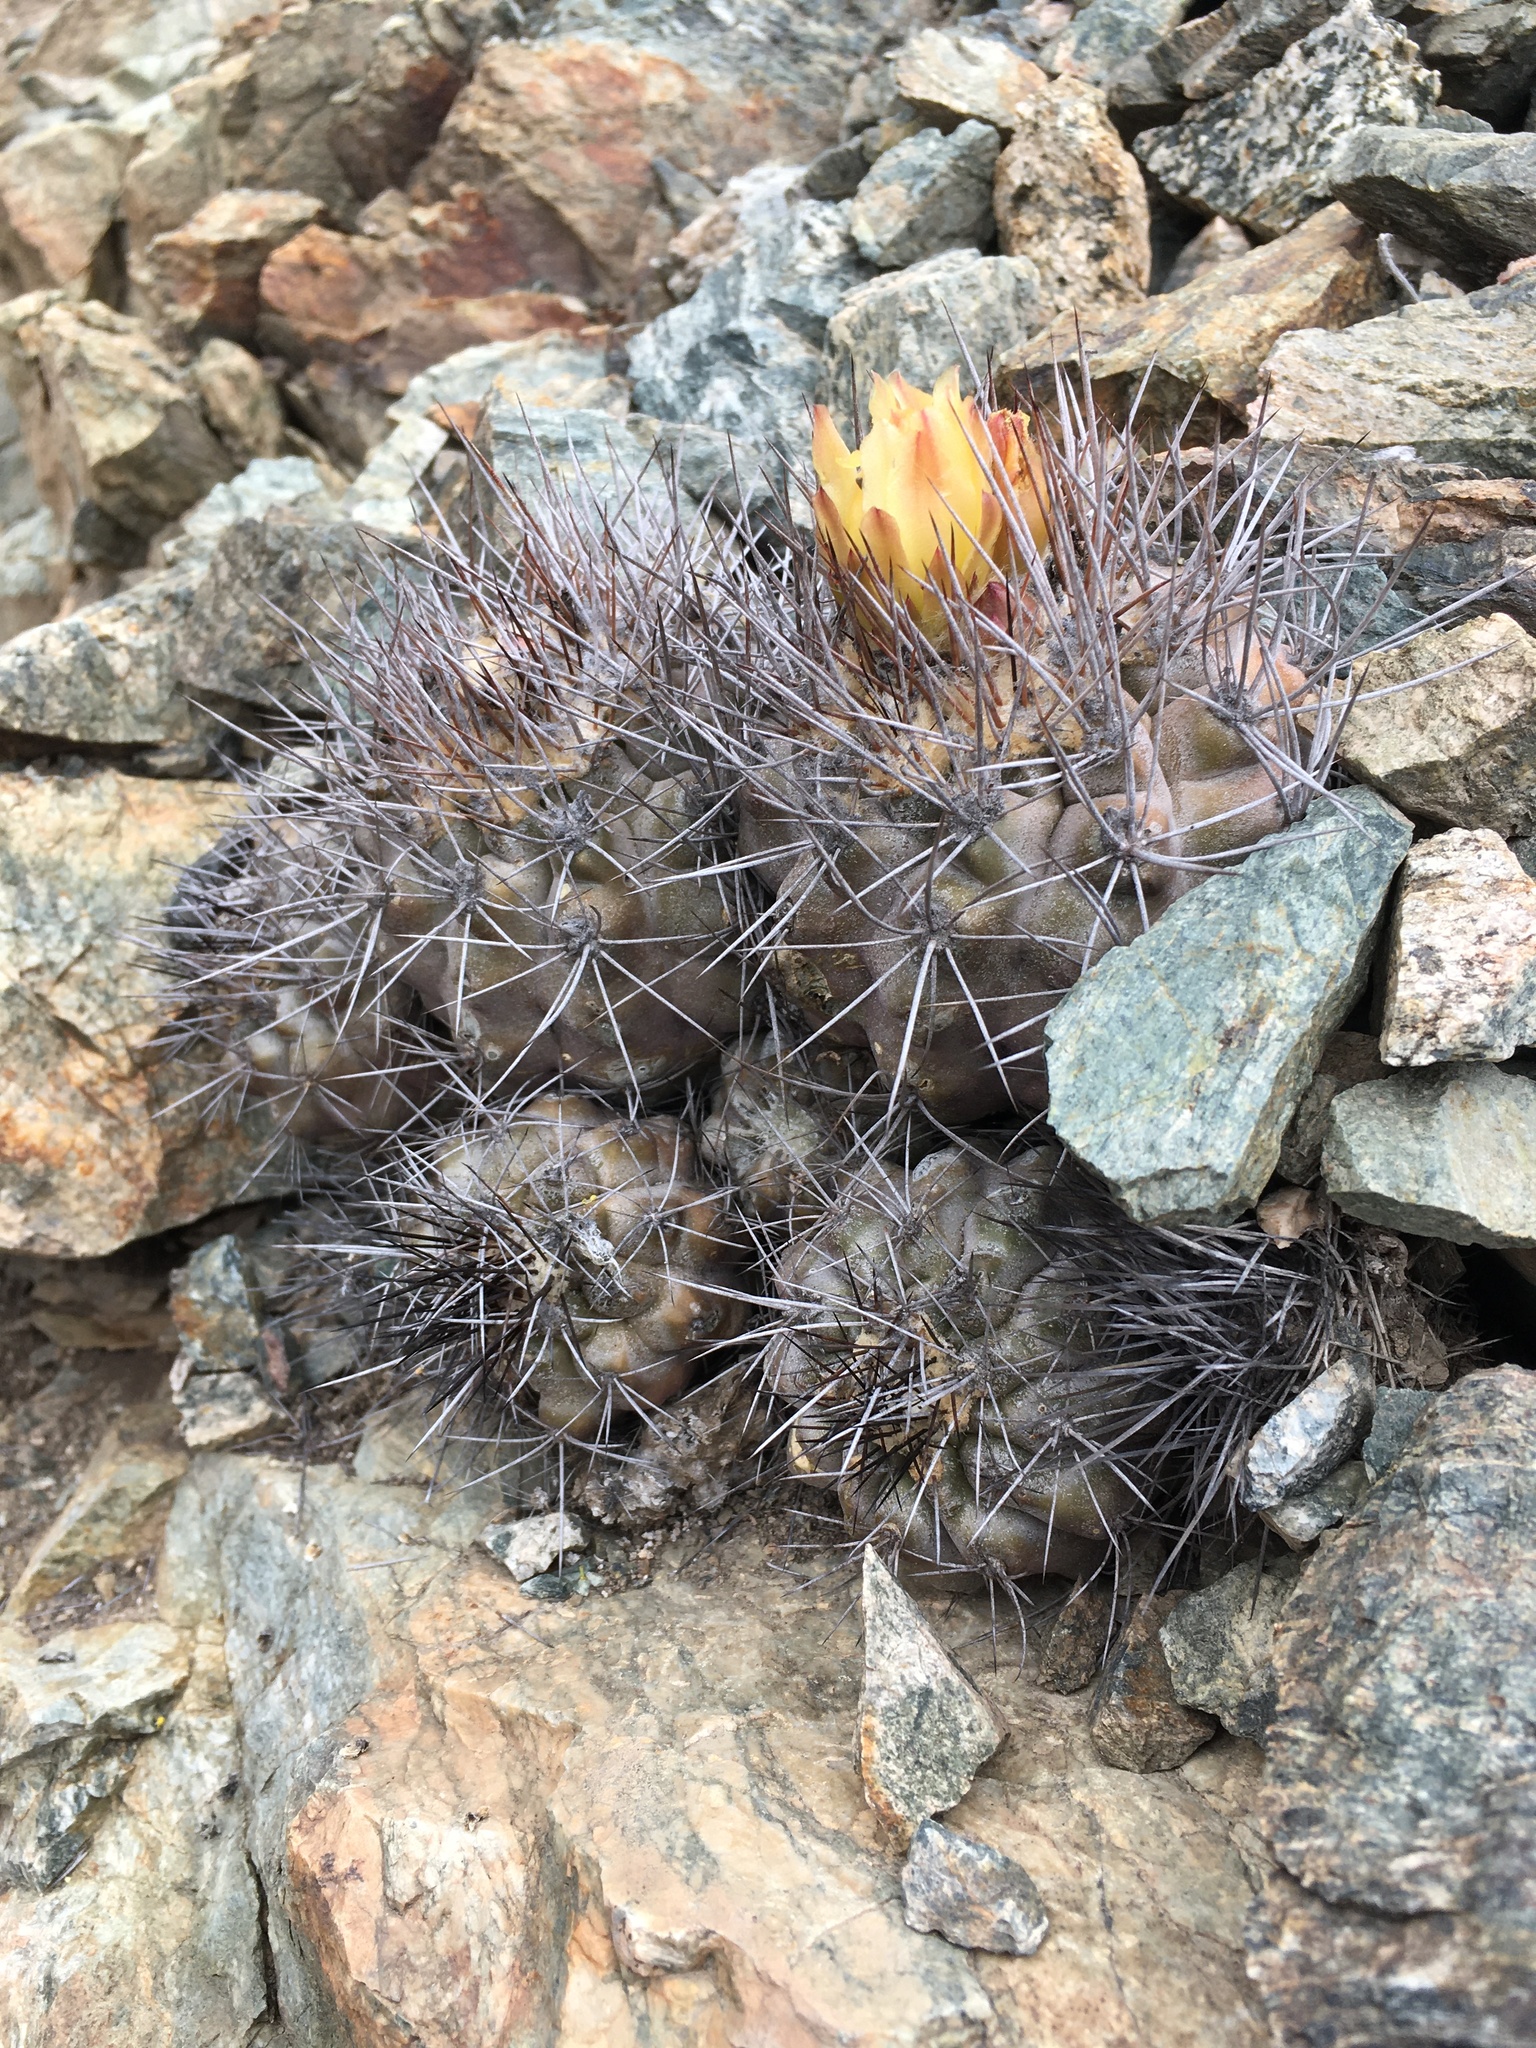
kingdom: Plantae
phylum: Tracheophyta
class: Magnoliopsida
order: Caryophyllales
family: Cactaceae
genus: Copiapoa
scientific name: Copiapoa humilis
